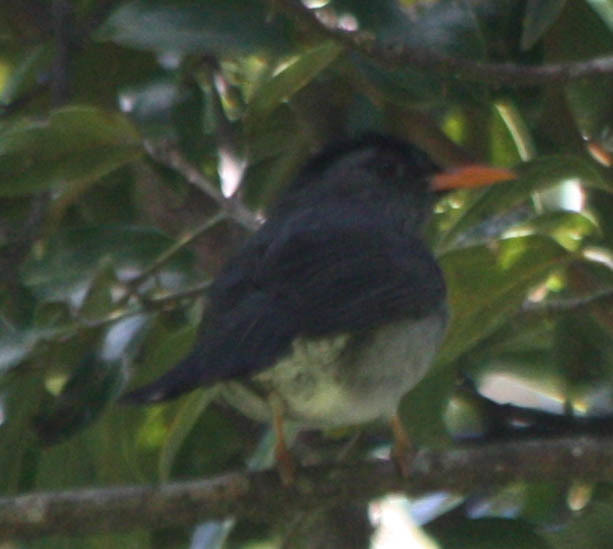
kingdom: Animalia
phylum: Chordata
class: Aves
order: Passeriformes
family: Pycnonotidae
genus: Hypsipetes
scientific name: Hypsipetes madagascariensis
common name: Malagasy bulbul
